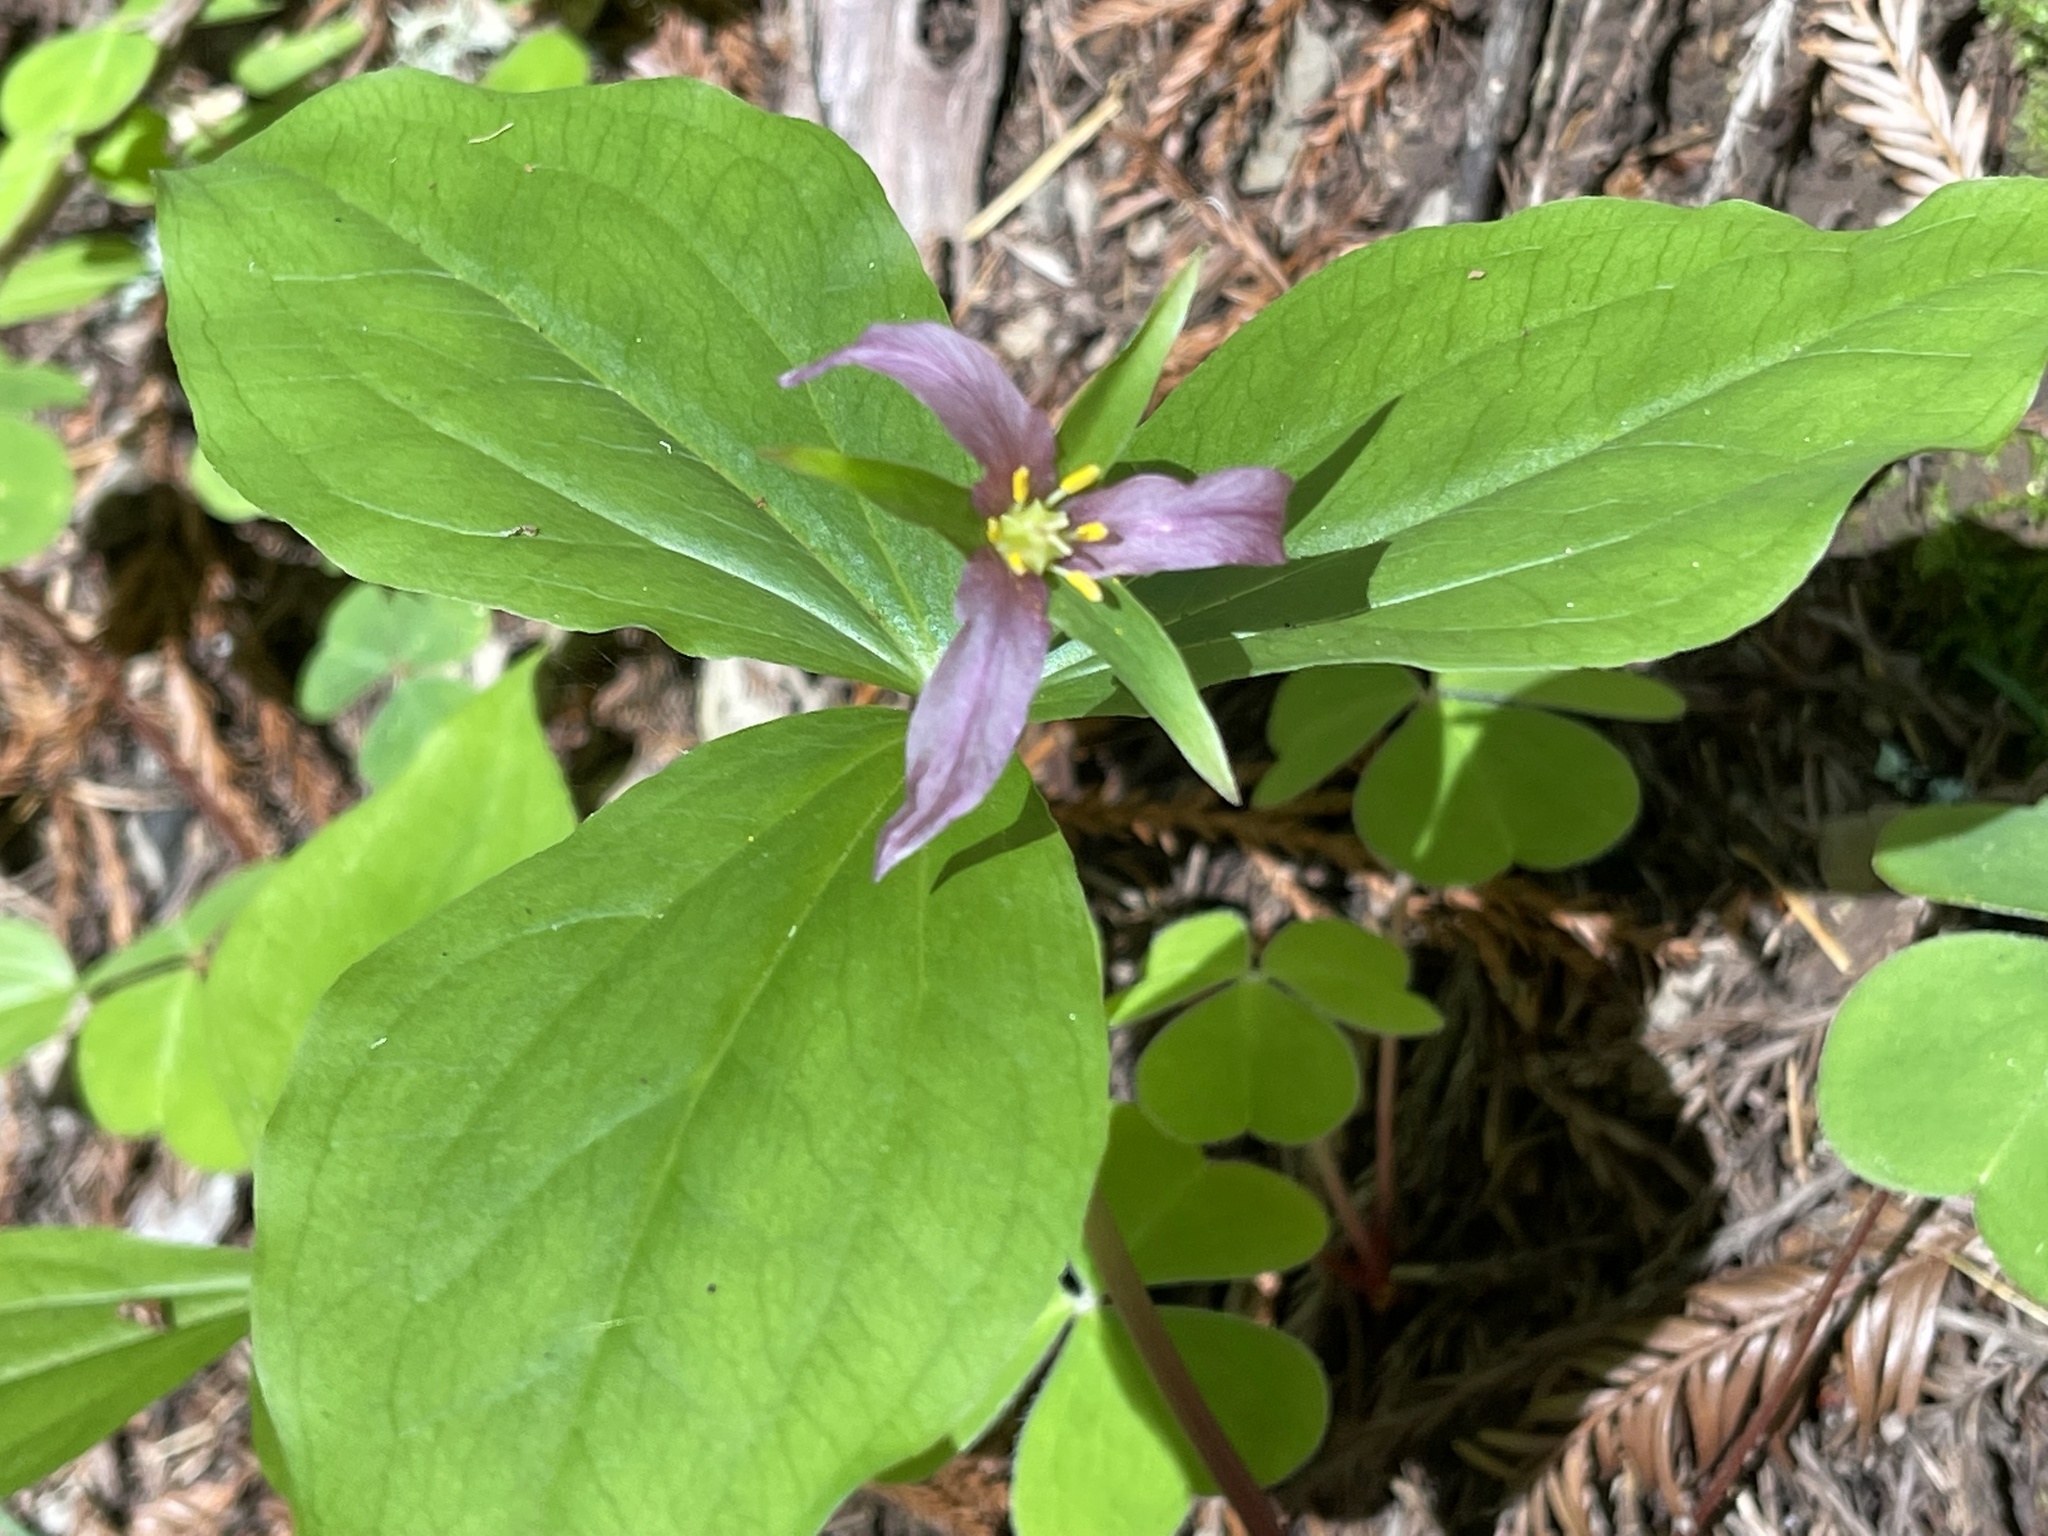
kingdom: Plantae
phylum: Tracheophyta
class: Liliopsida
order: Liliales
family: Melanthiaceae
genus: Trillium
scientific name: Trillium ovatum
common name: Pacific trillium
